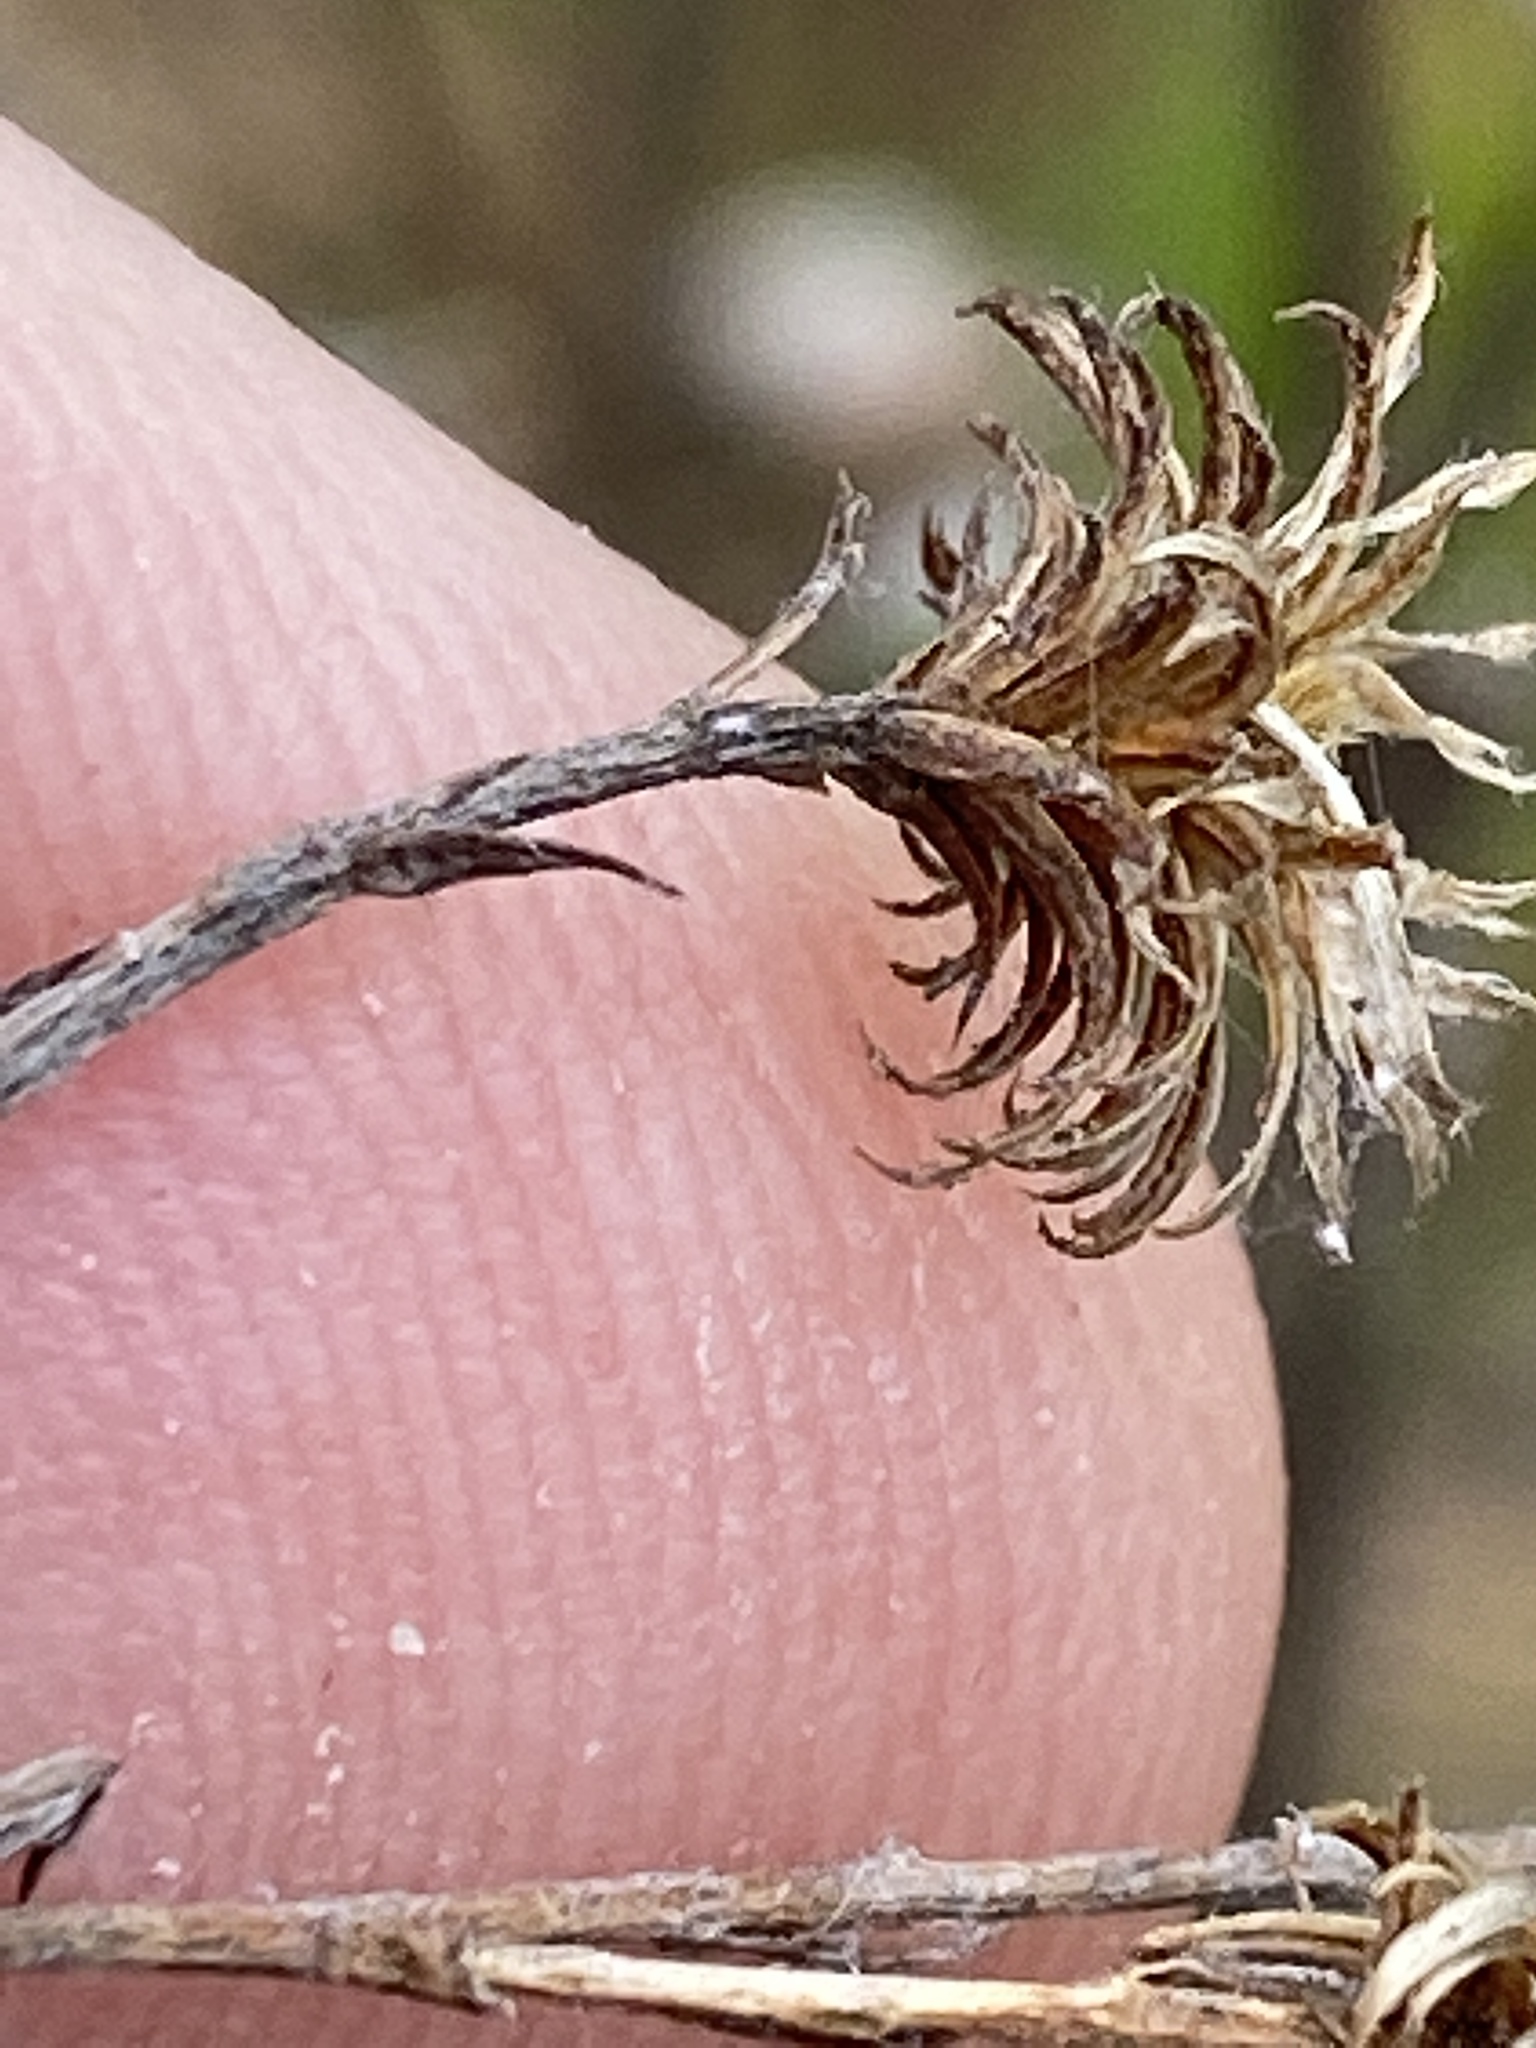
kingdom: Plantae
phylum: Tracheophyta
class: Magnoliopsida
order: Asterales
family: Asteraceae
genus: Pityopsis
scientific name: Pityopsis graminifolia
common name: Grass-leaf golden-aster
